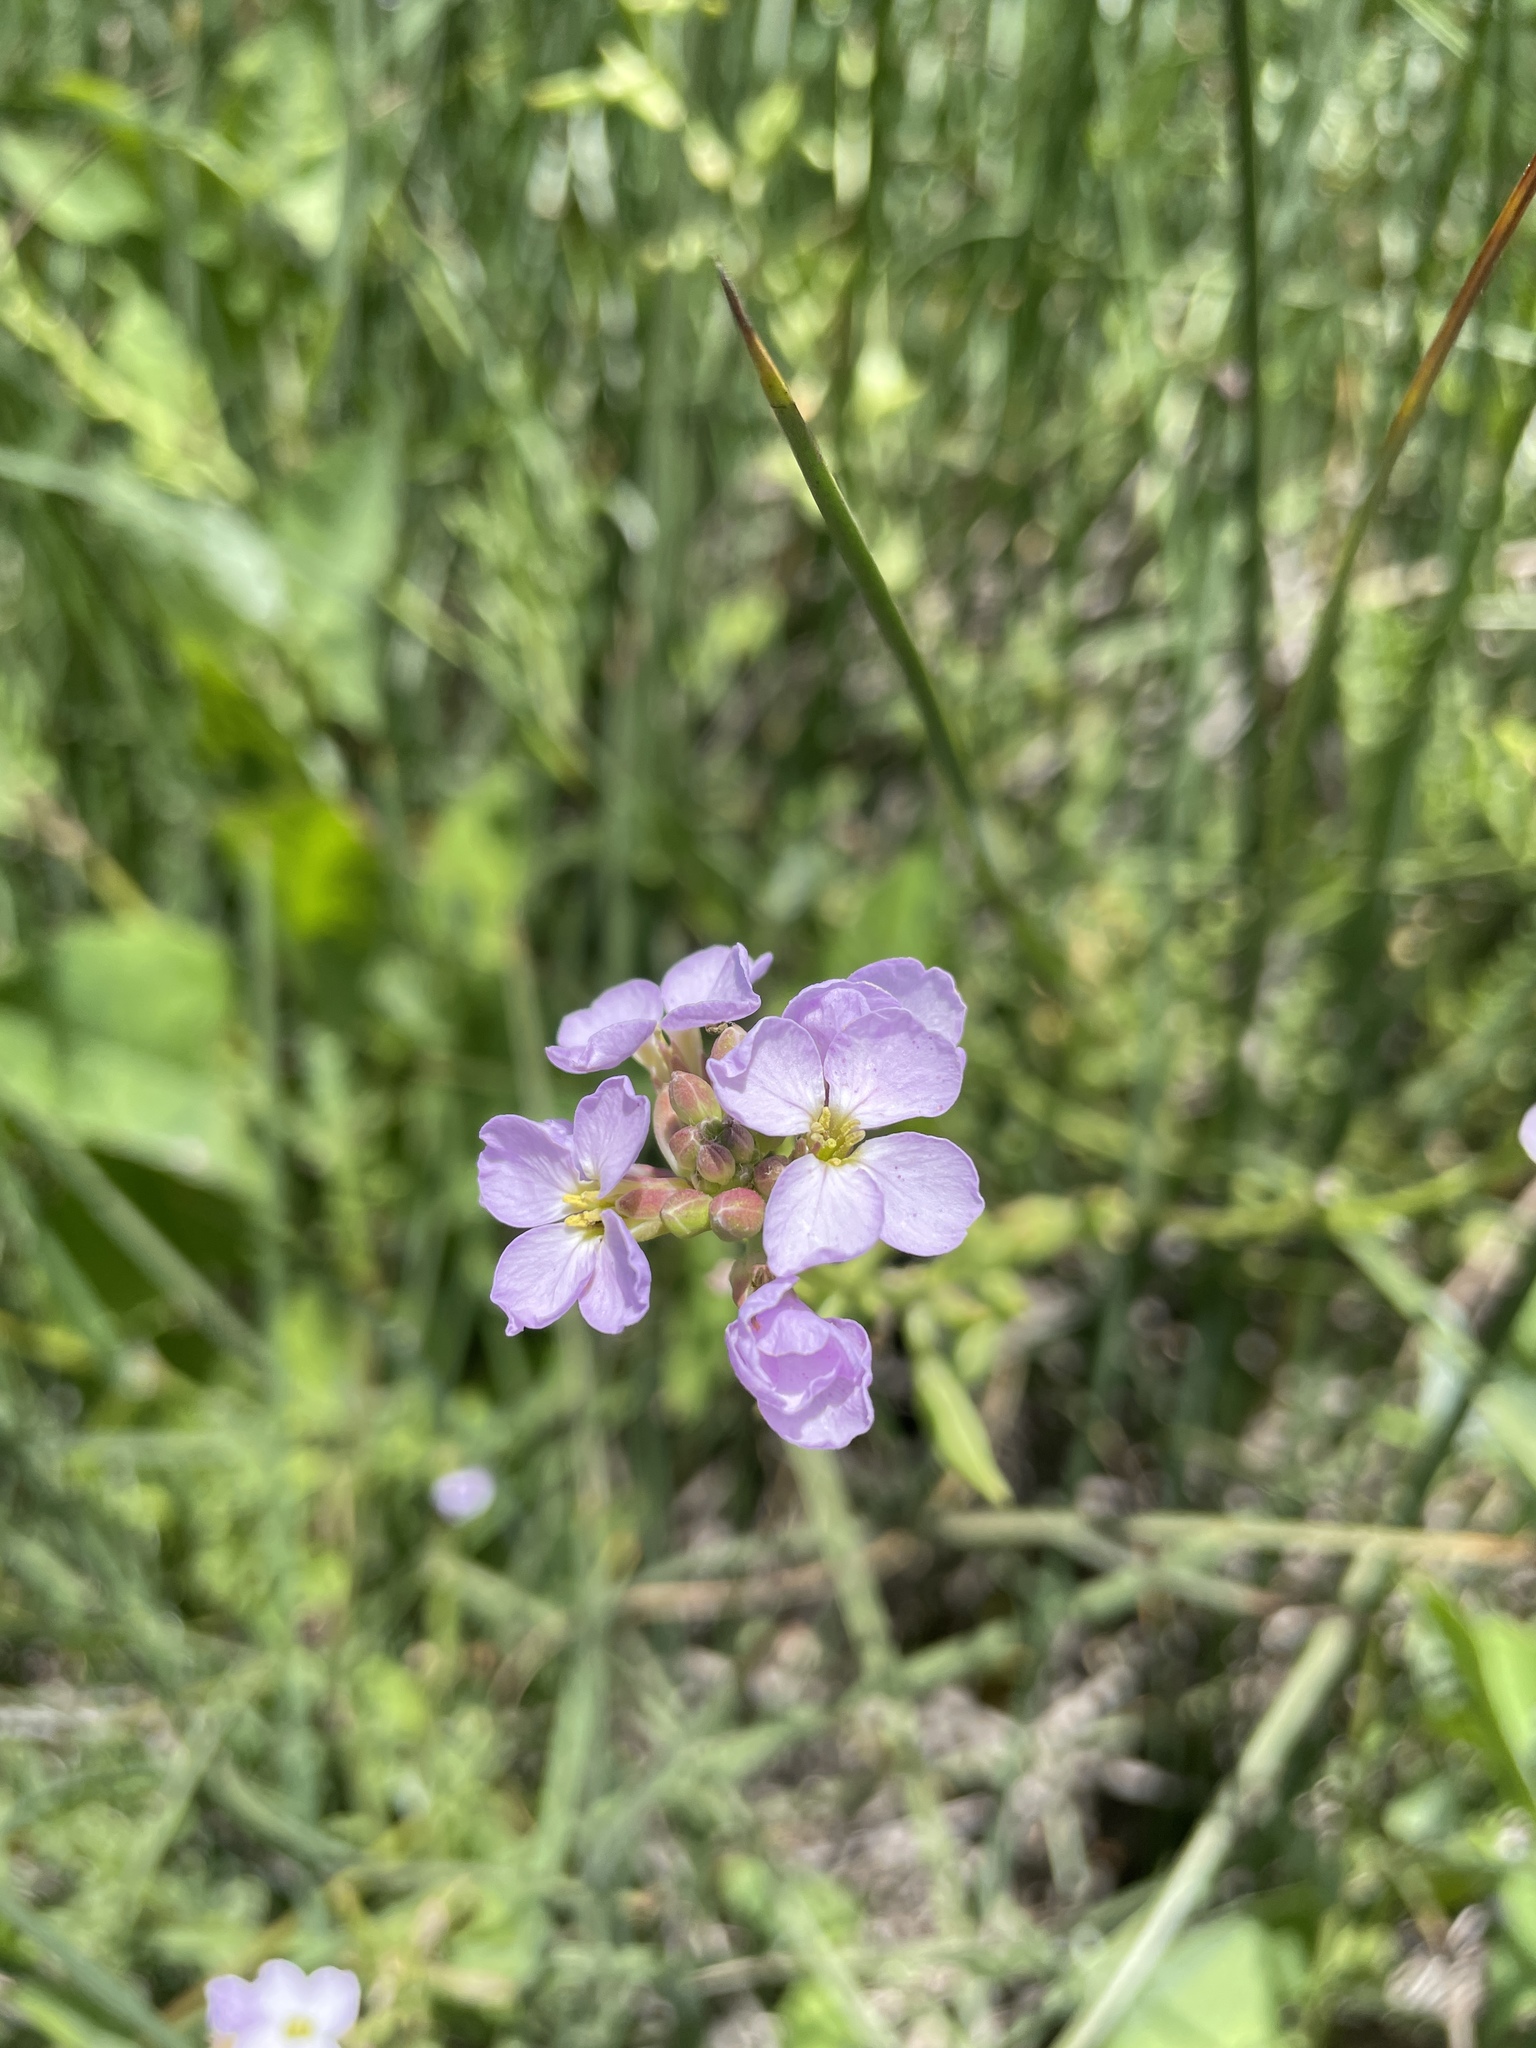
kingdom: Plantae
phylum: Tracheophyta
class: Magnoliopsida
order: Brassicales
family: Brassicaceae
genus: Cakile
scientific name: Cakile maritima
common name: Sea rocket
